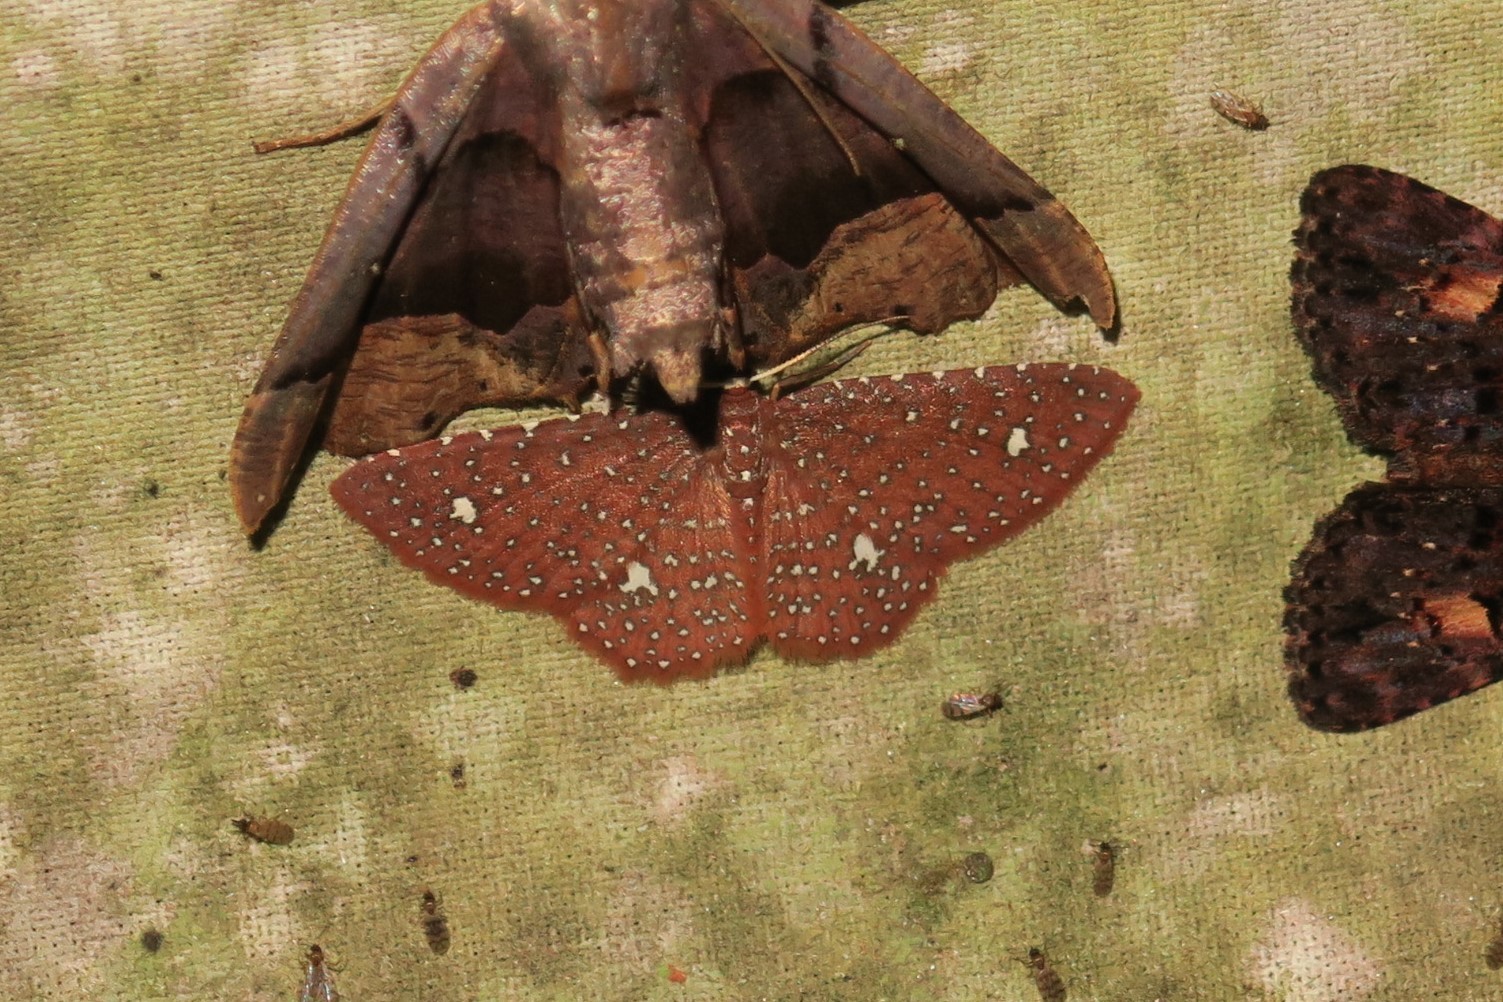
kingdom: Animalia
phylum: Arthropoda
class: Insecta
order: Lepidoptera
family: Geometridae
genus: Eois
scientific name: Eois planetaria
